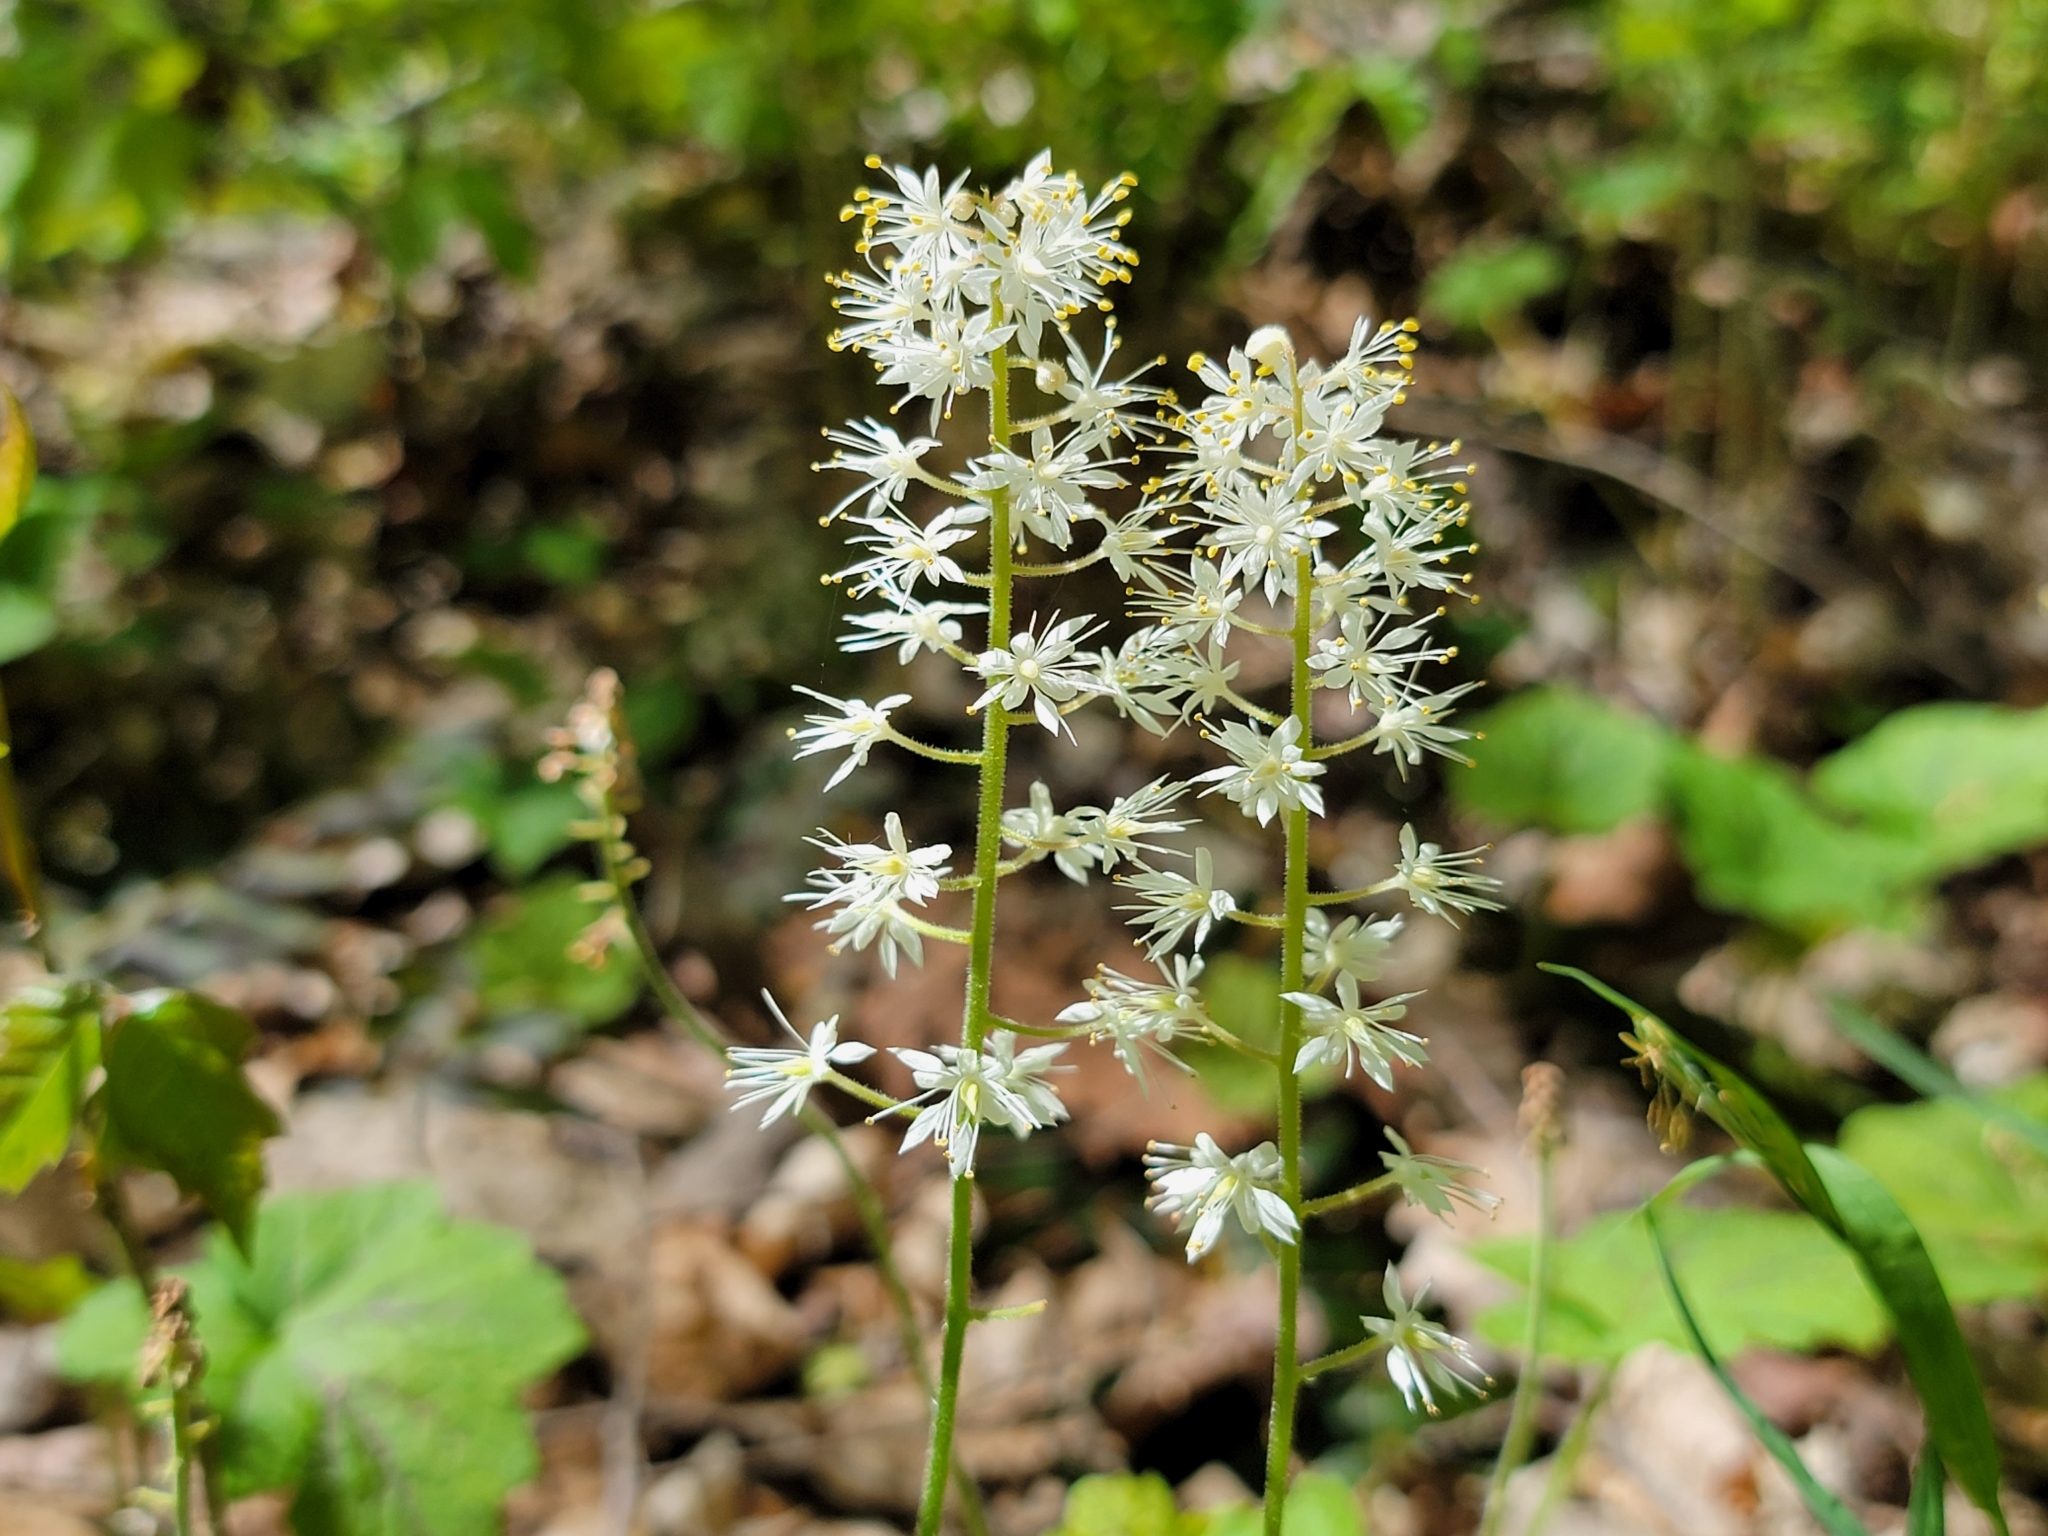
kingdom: Plantae
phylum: Tracheophyta
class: Magnoliopsida
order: Saxifragales
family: Saxifragaceae
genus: Tiarella
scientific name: Tiarella stolonifera
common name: Stoloniferous foamflower
